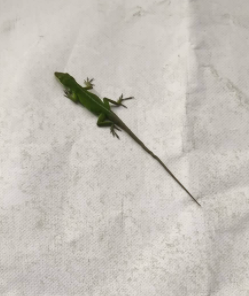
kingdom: Animalia
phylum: Chordata
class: Squamata
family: Dactyloidae
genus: Anolis
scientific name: Anolis carolinensis
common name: Green anole
